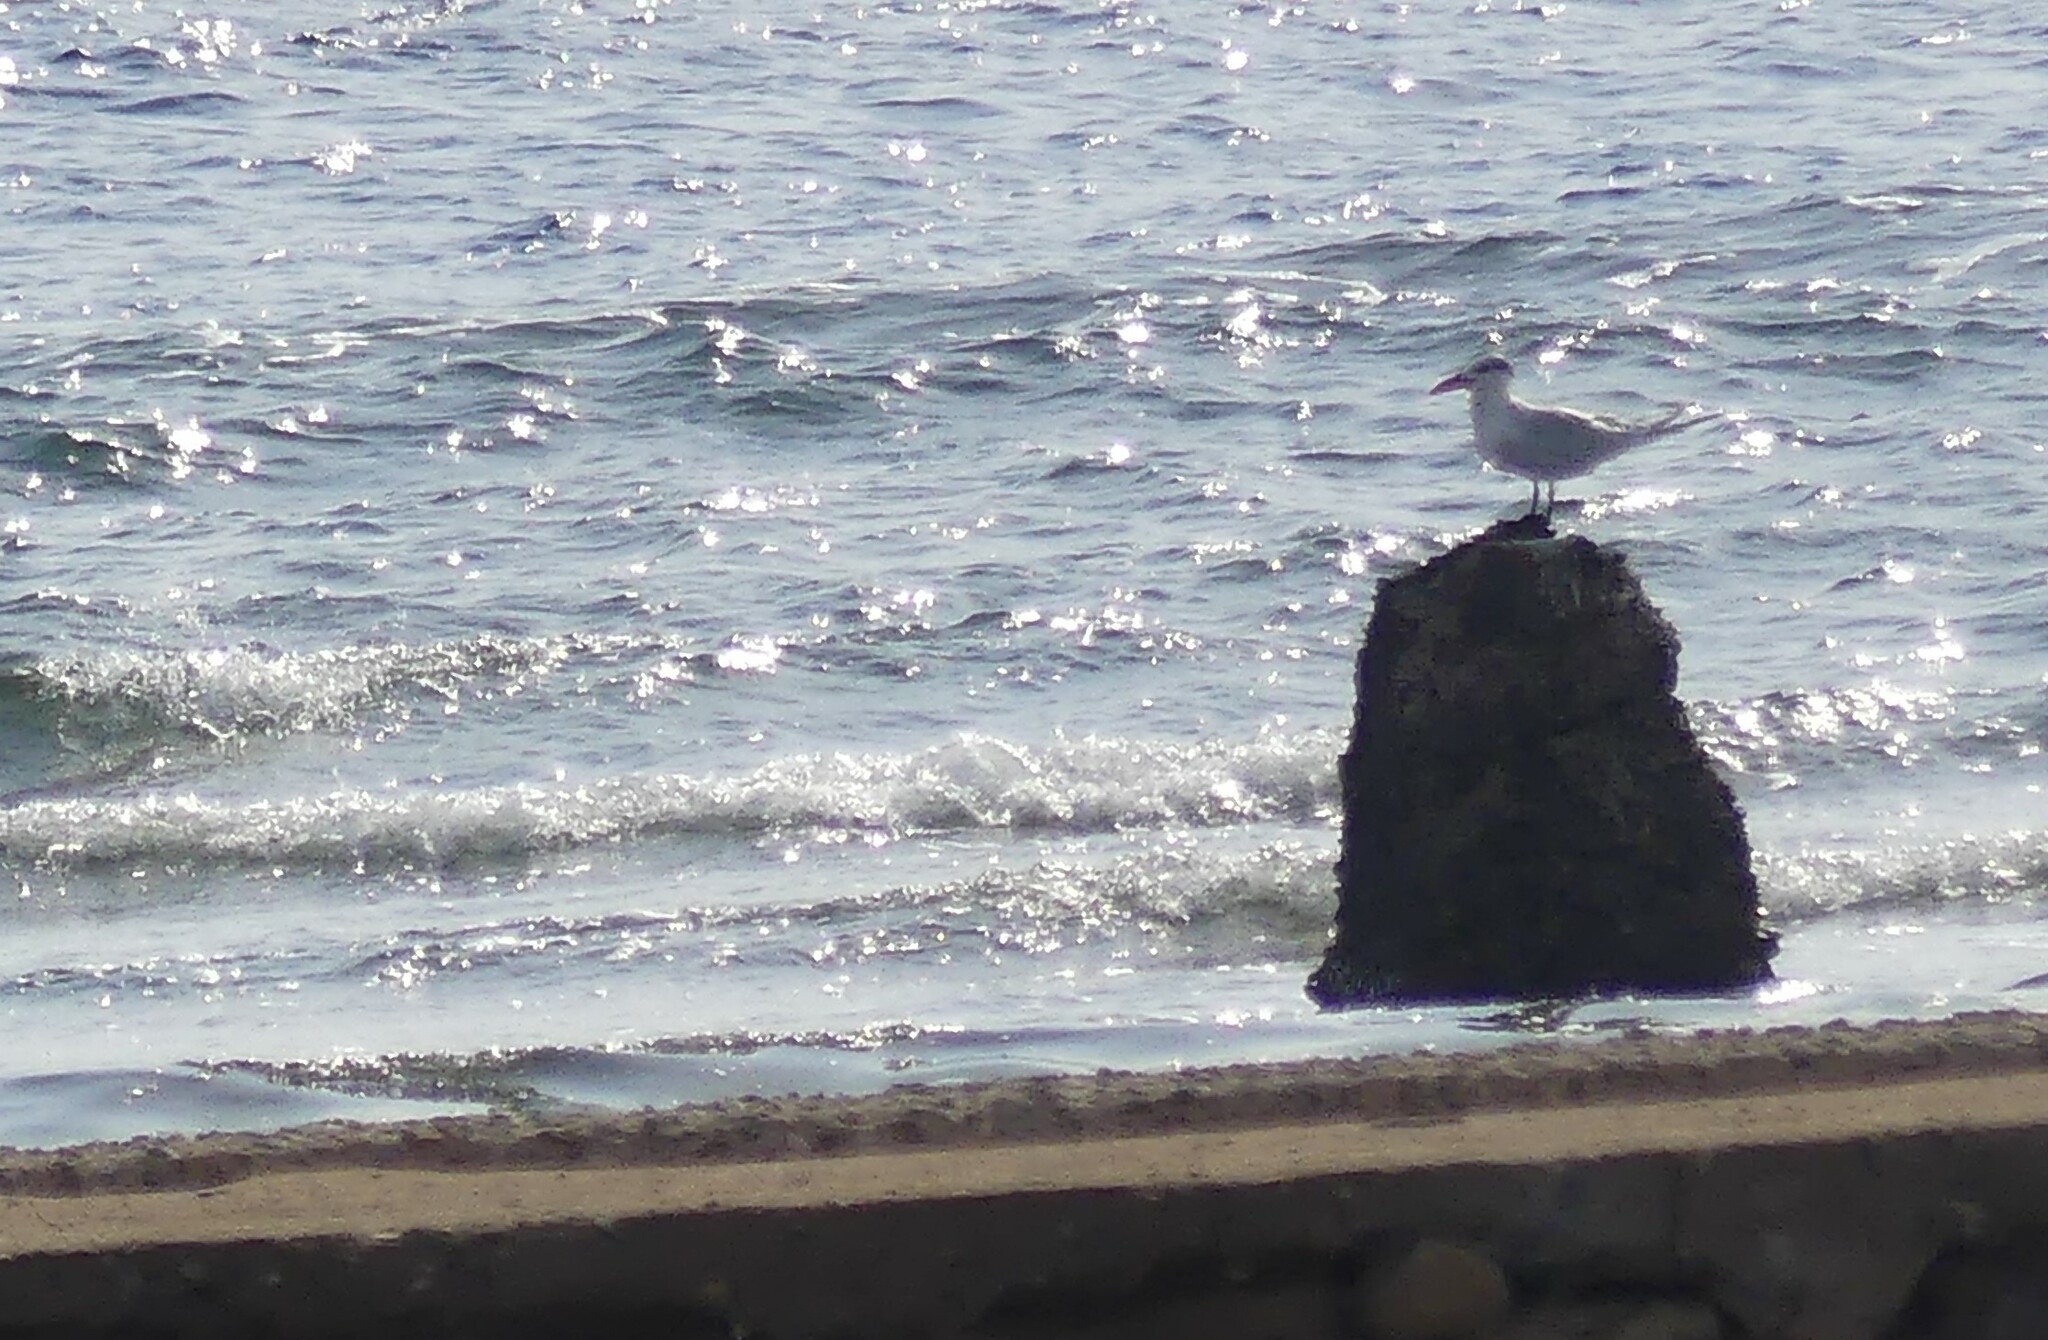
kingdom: Animalia
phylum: Chordata
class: Aves
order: Charadriiformes
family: Laridae
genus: Hydroprogne
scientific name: Hydroprogne caspia
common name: Caspian tern
